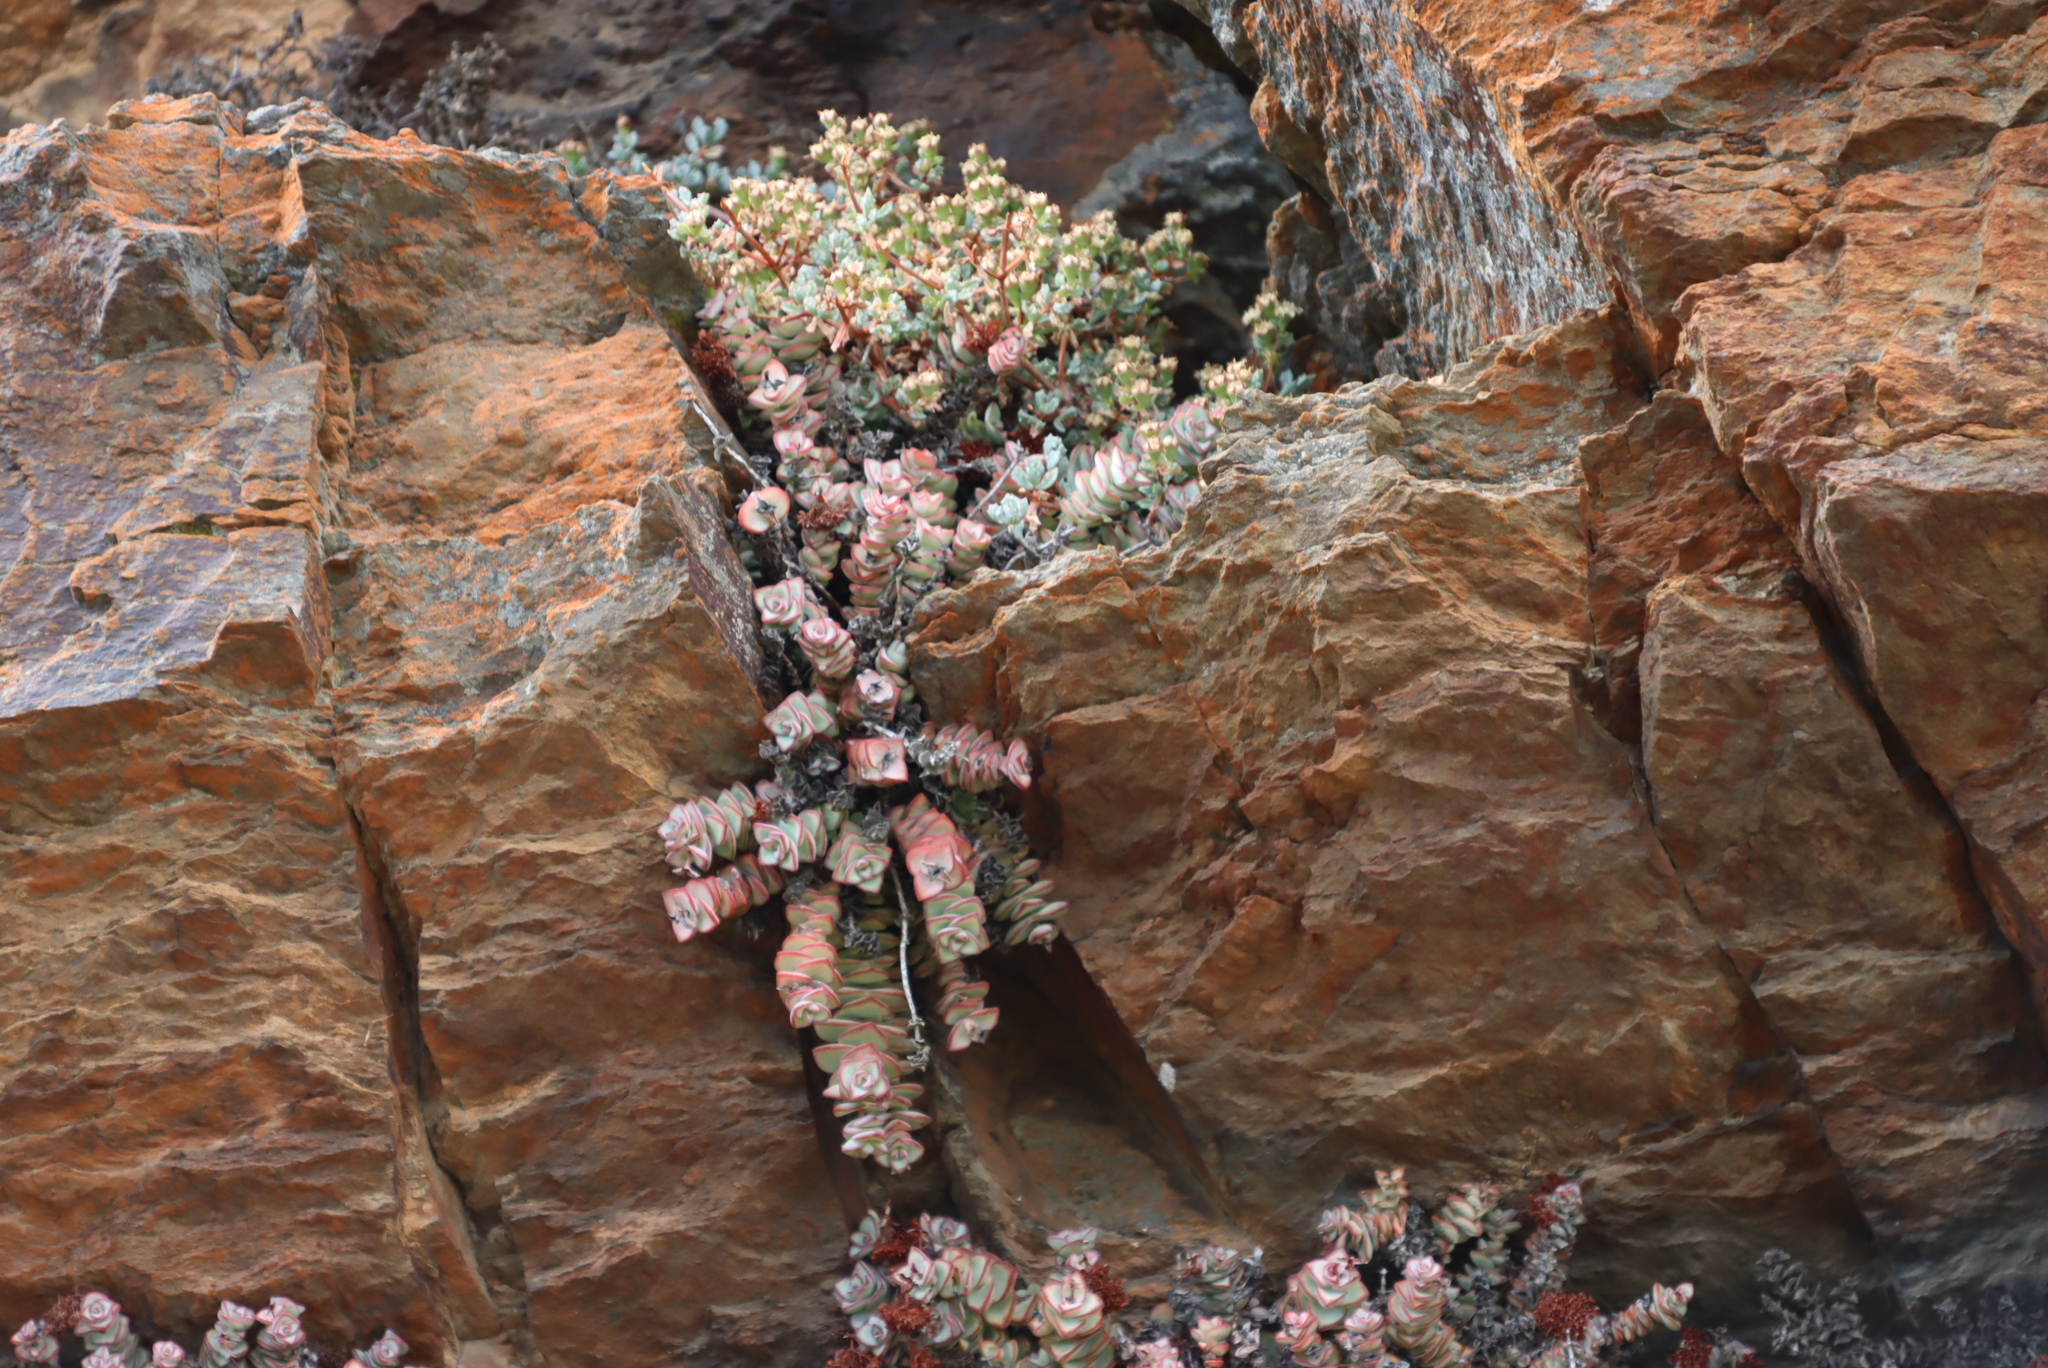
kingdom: Plantae
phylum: Tracheophyta
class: Magnoliopsida
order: Saxifragales
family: Crassulaceae
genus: Crassula
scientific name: Crassula rupestris
